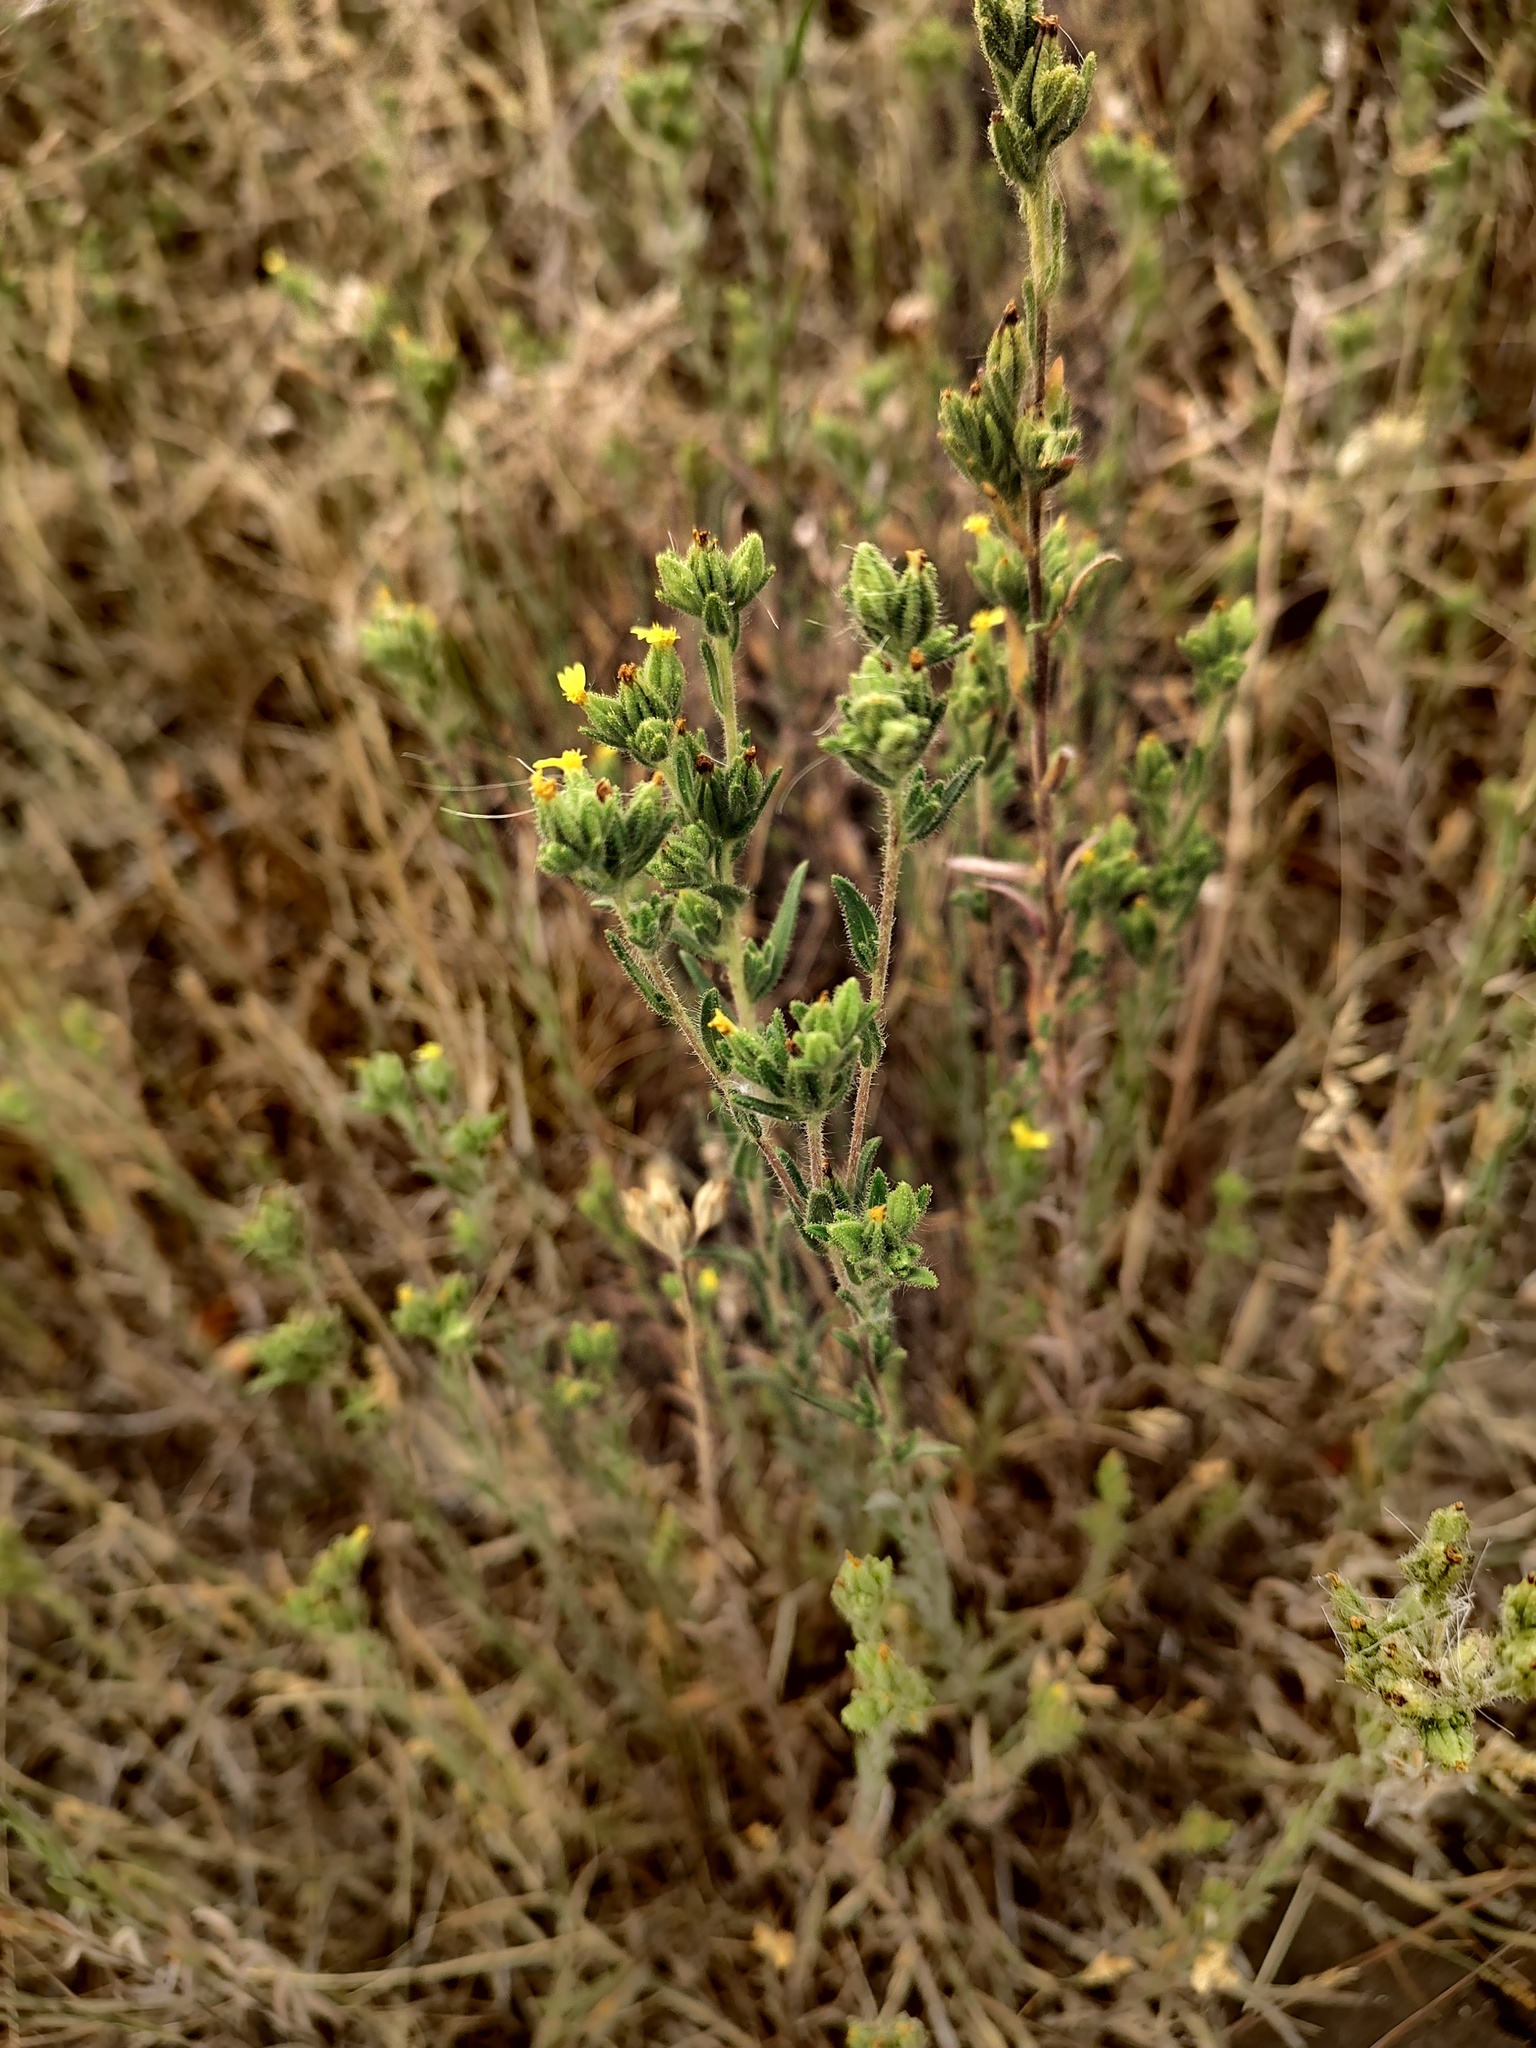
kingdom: Plantae
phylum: Tracheophyta
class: Magnoliopsida
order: Asterales
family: Asteraceae
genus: Madia
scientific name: Madia glomerata
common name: Mountain tarweed
